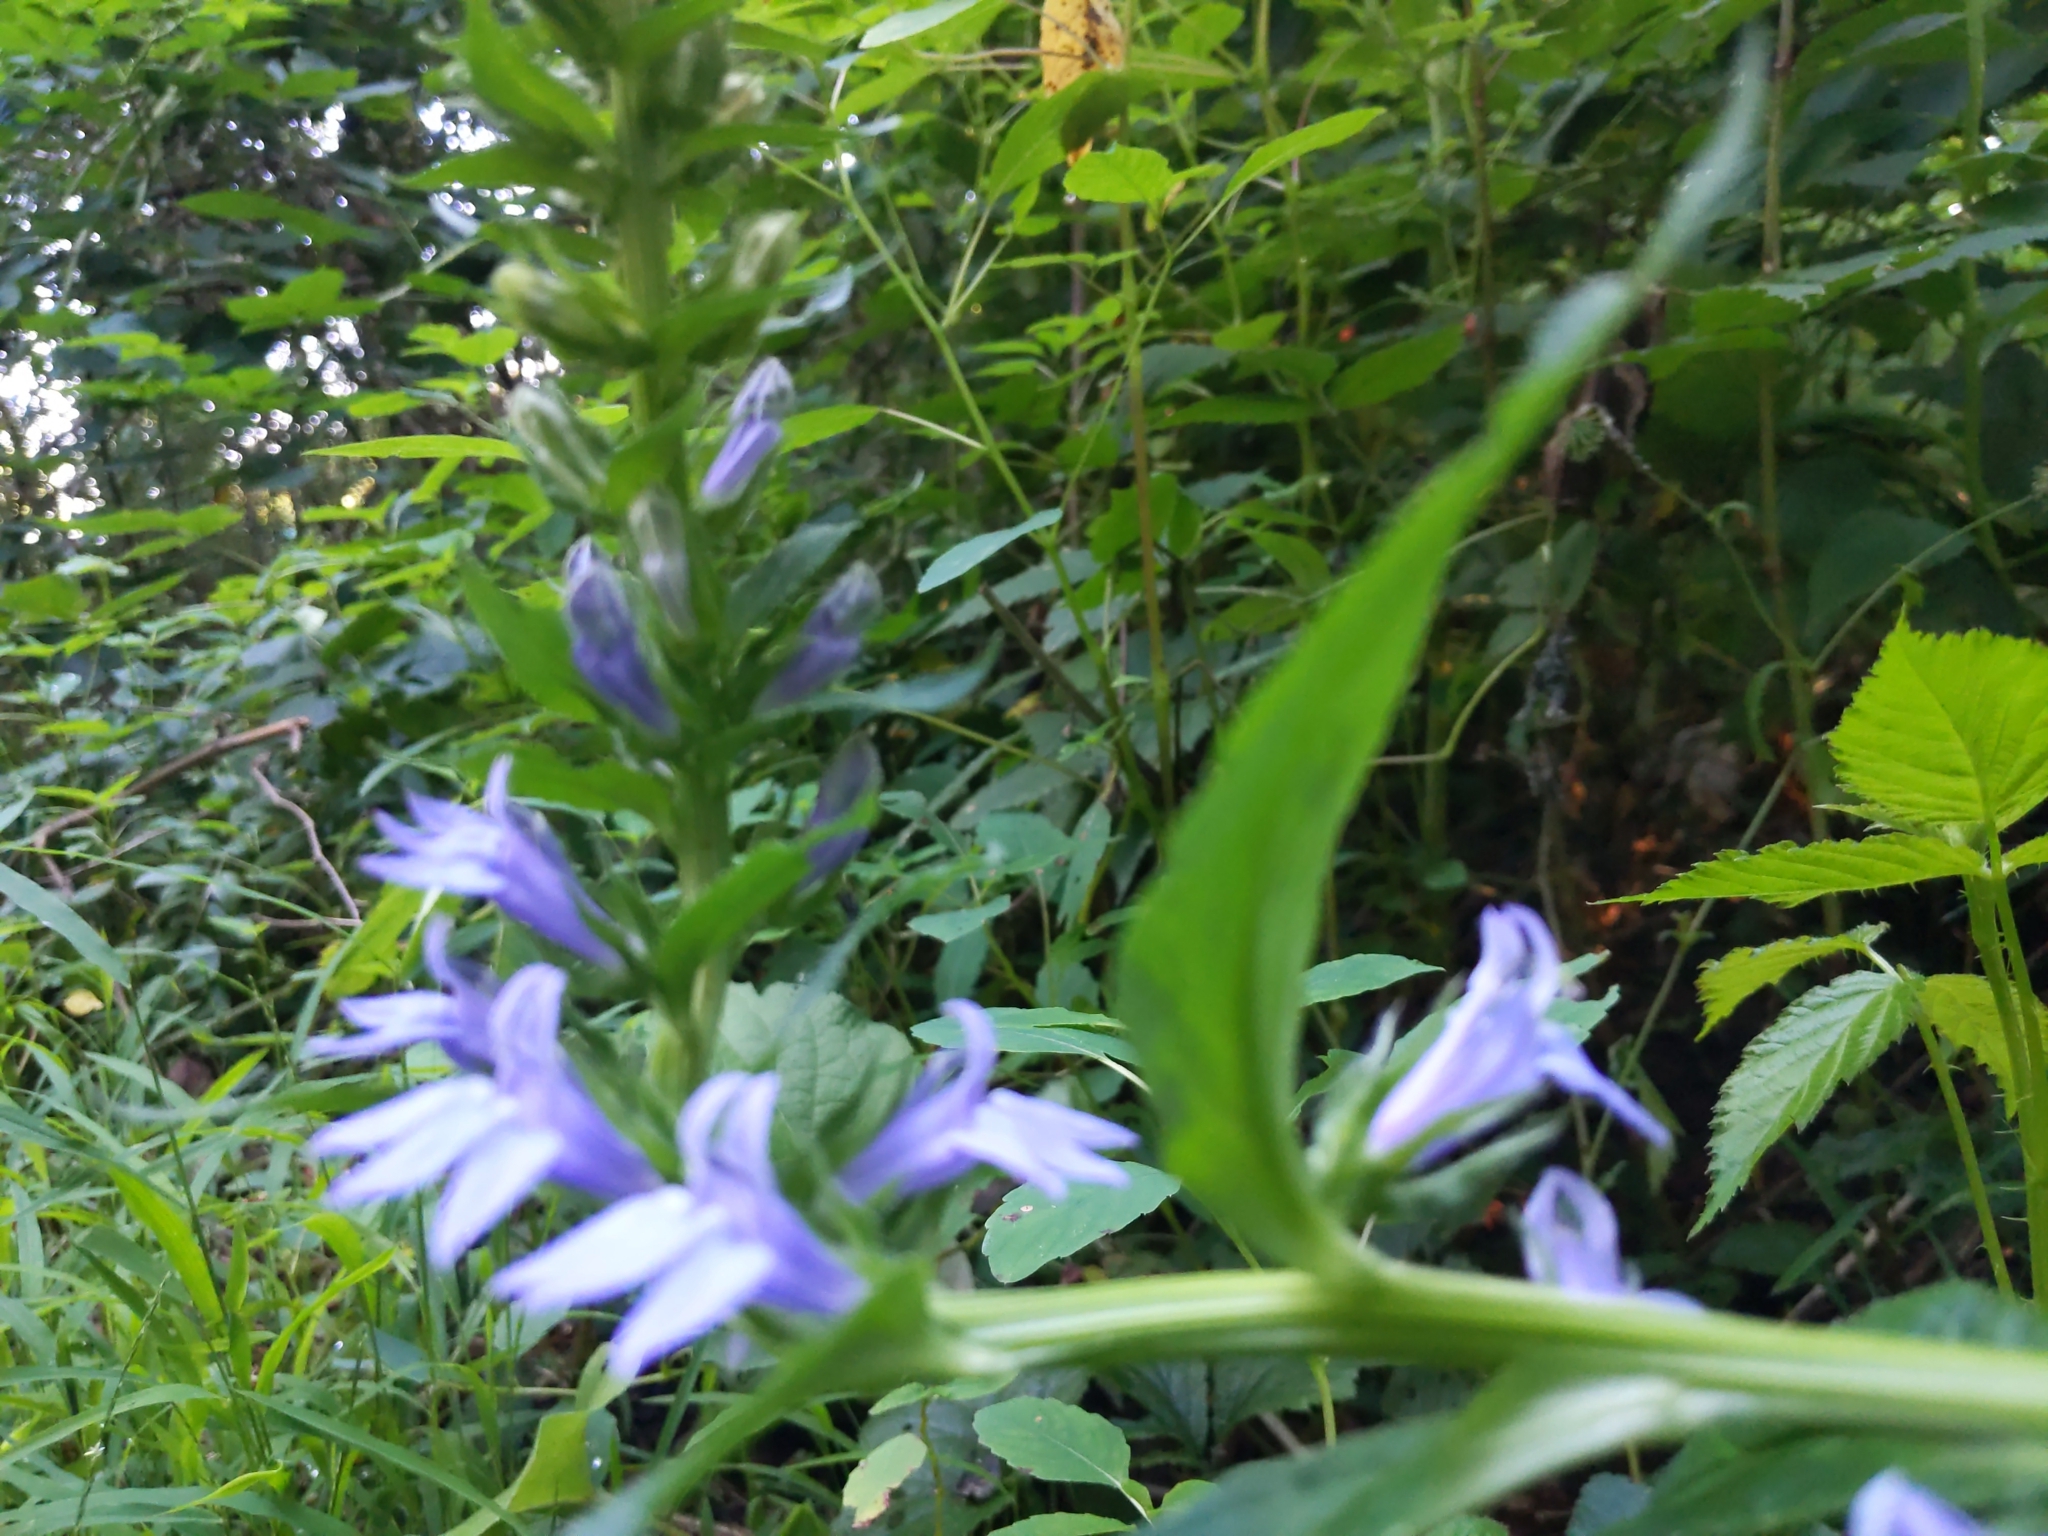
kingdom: Plantae
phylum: Tracheophyta
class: Magnoliopsida
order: Asterales
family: Campanulaceae
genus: Lobelia
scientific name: Lobelia siphilitica
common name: Great lobelia
